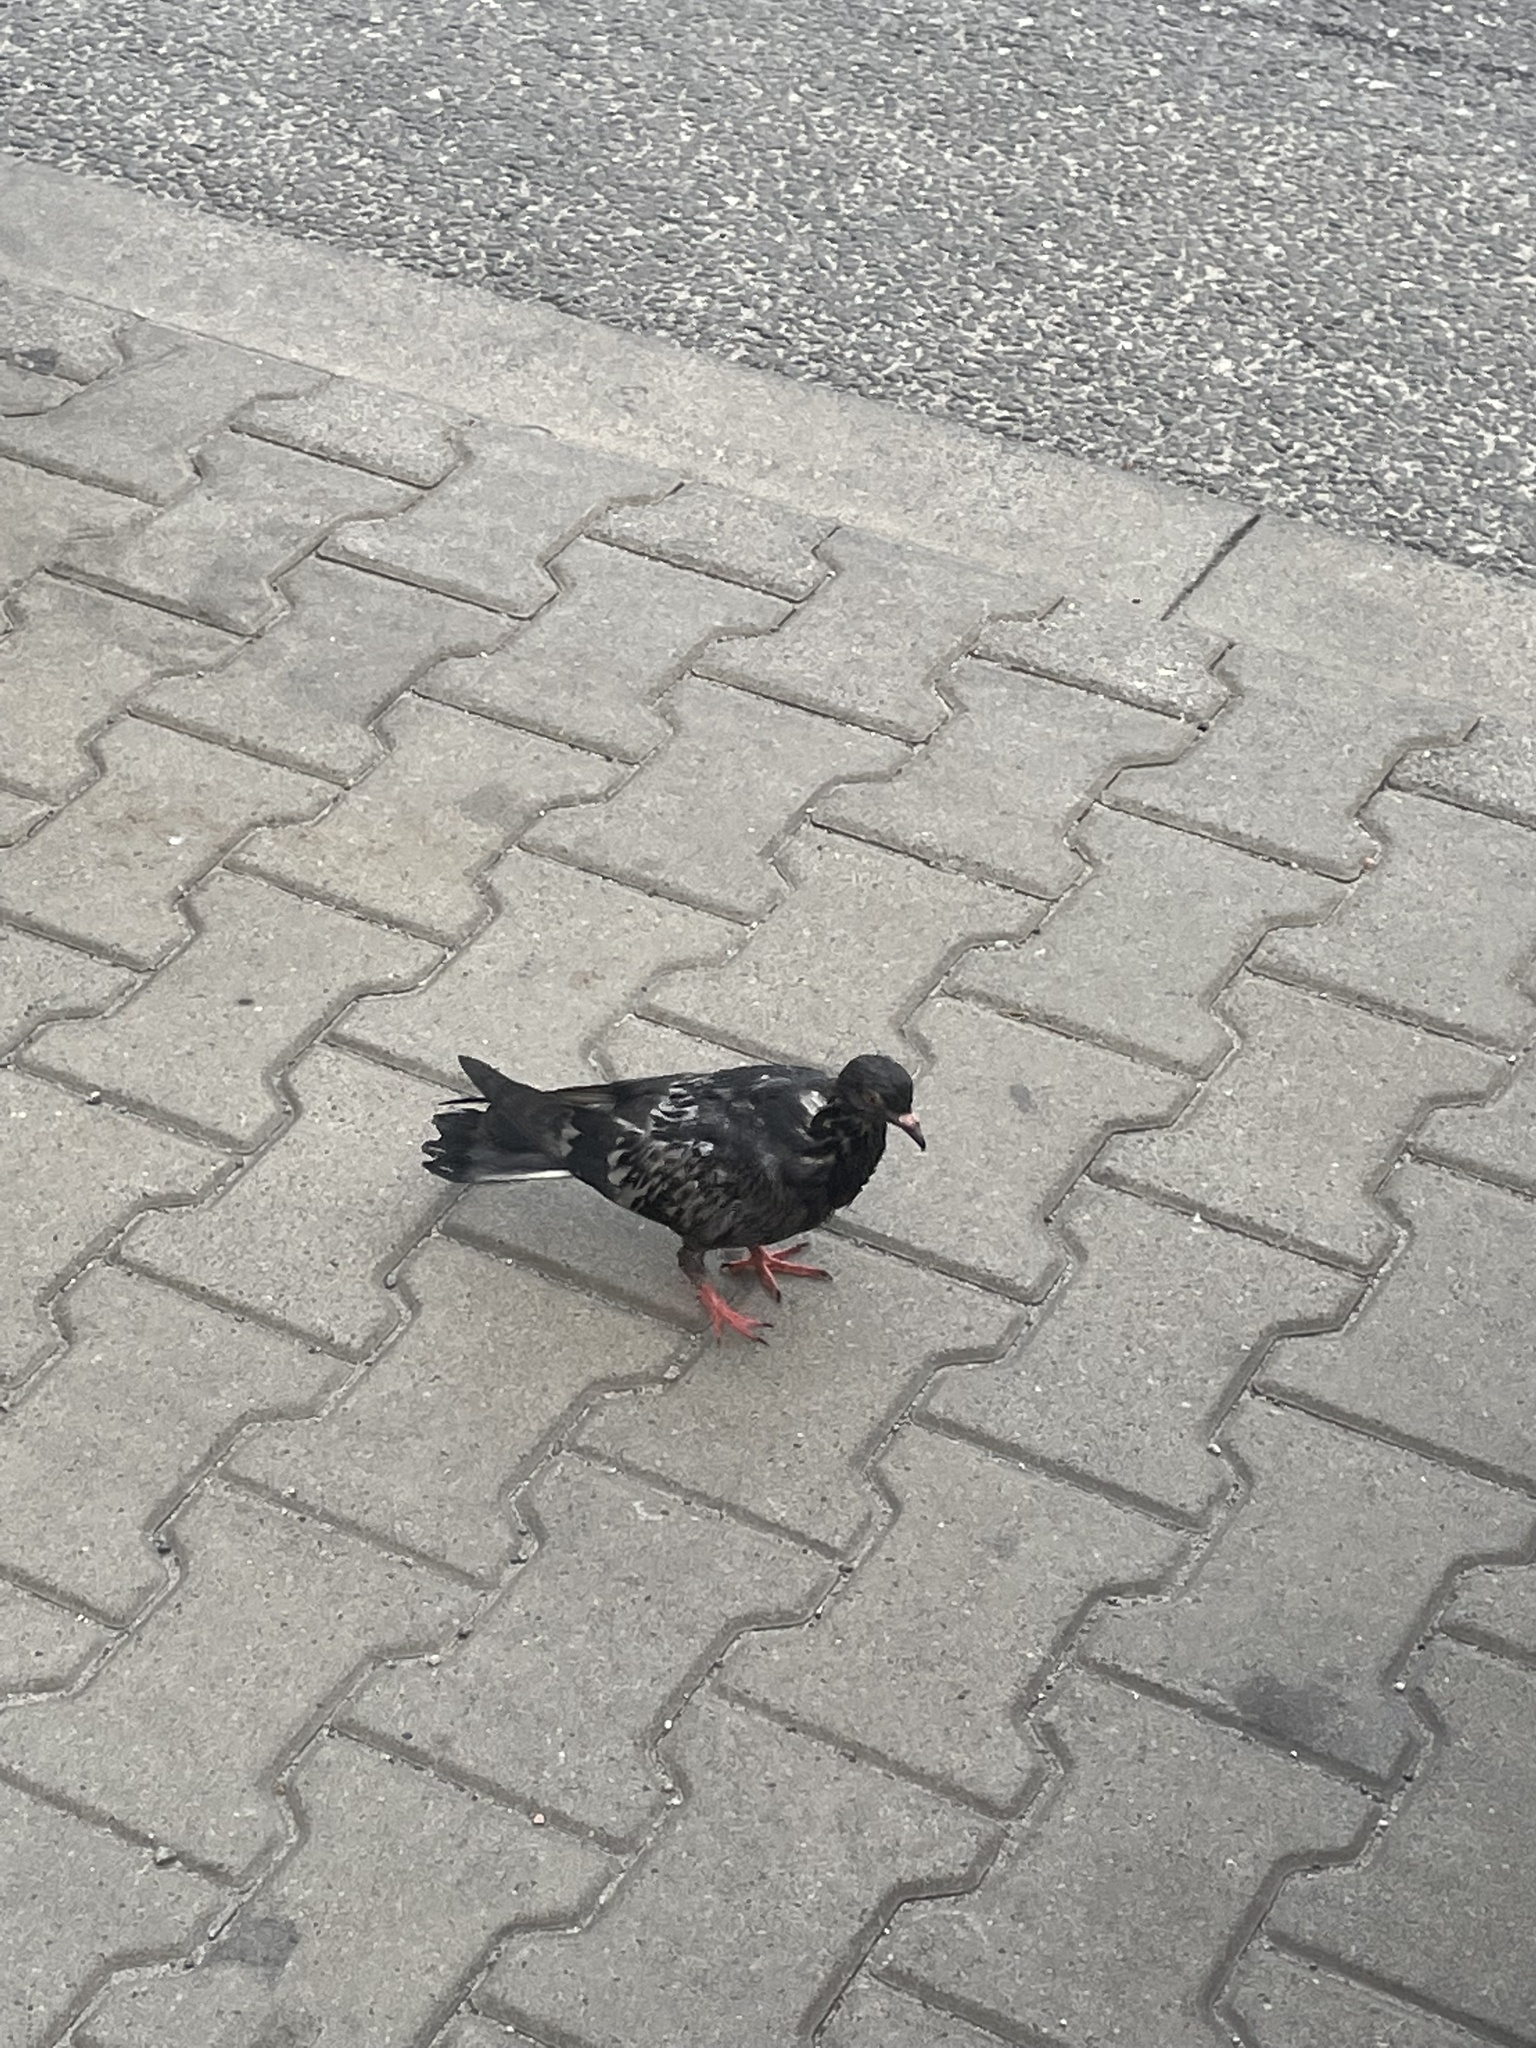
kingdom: Animalia
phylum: Chordata
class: Aves
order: Columbiformes
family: Columbidae
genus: Columba
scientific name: Columba livia
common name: Rock pigeon
